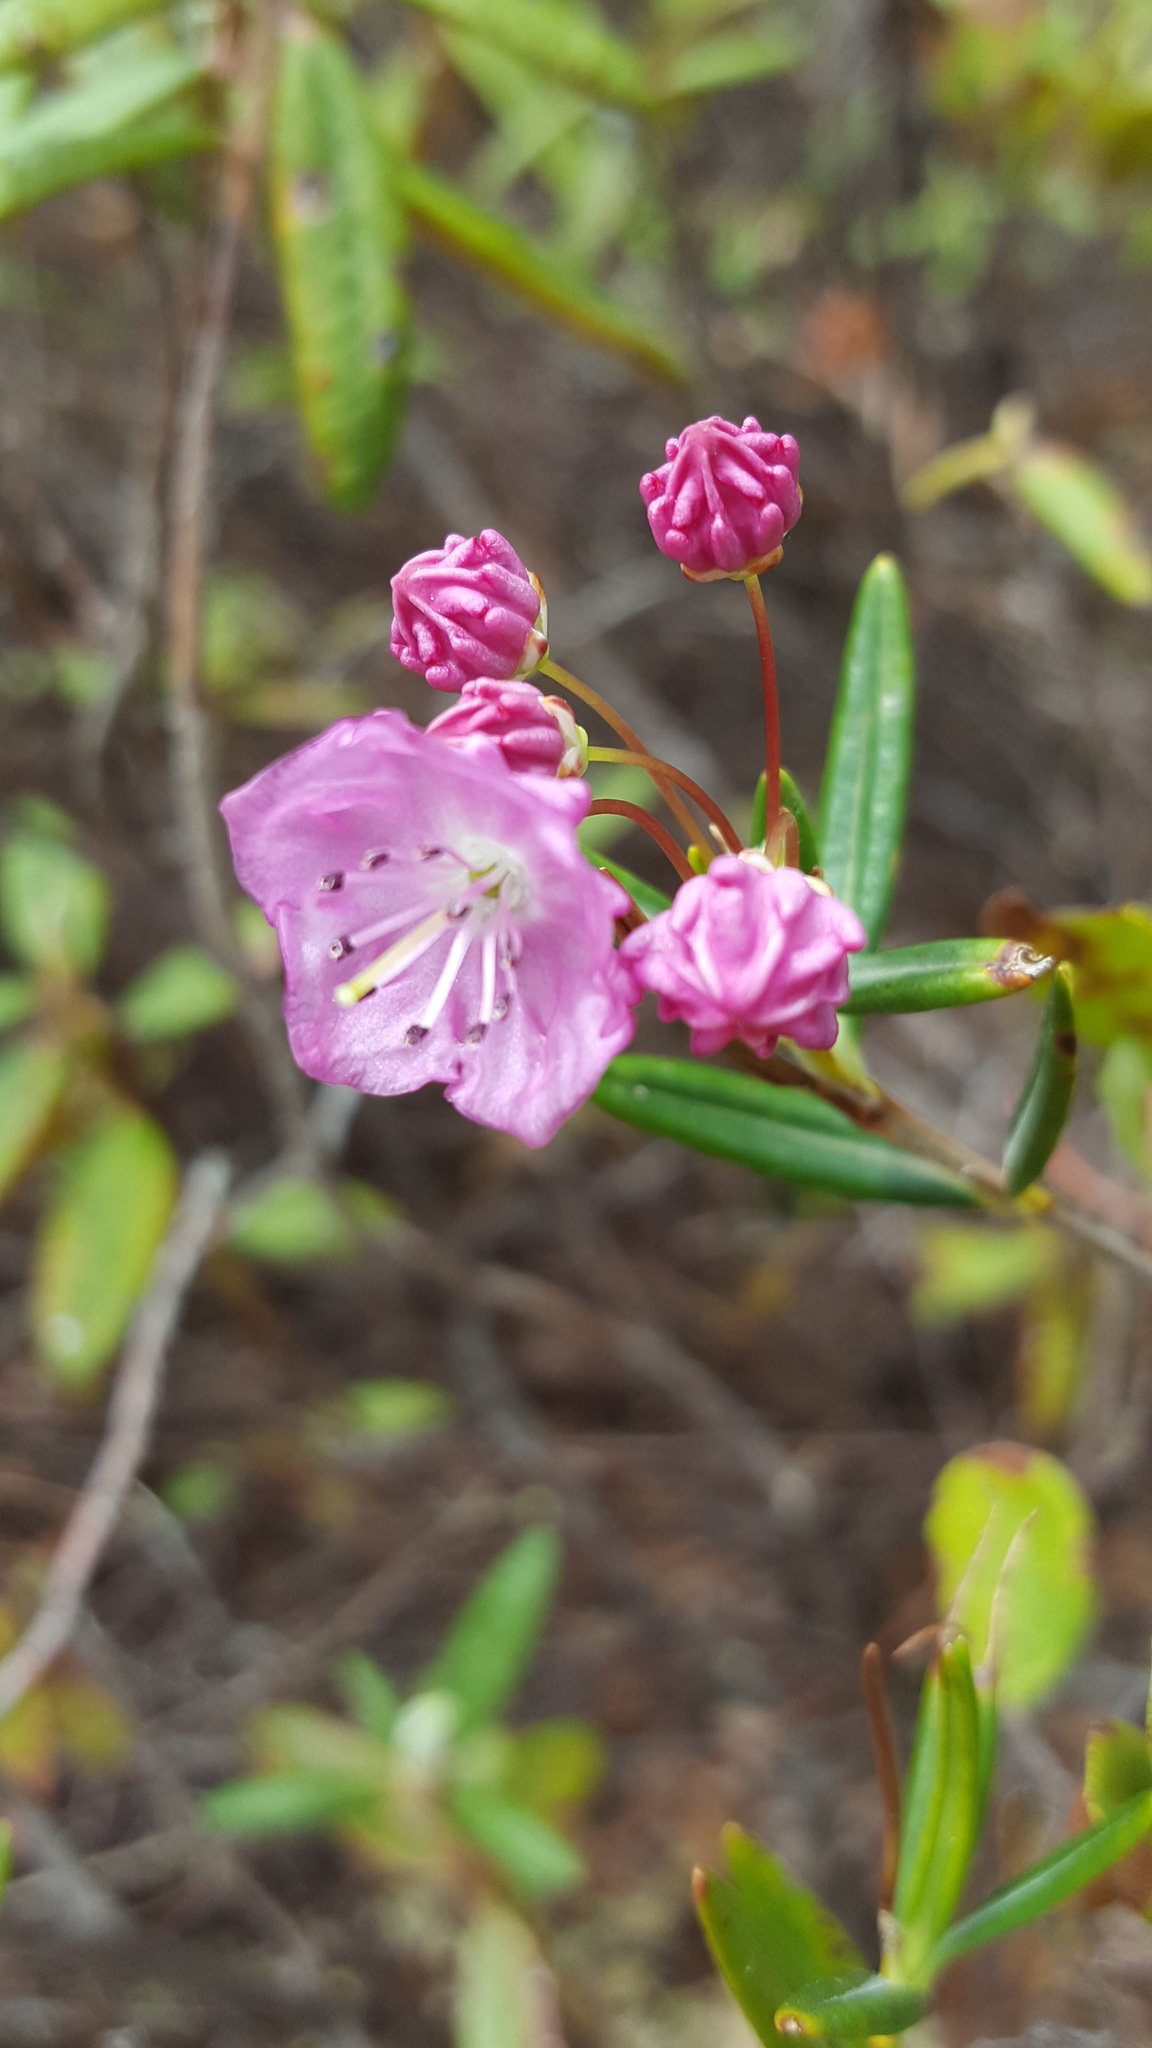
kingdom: Plantae
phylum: Tracheophyta
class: Magnoliopsida
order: Ericales
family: Ericaceae
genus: Kalmia
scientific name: Kalmia polifolia
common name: Bog-laurel
